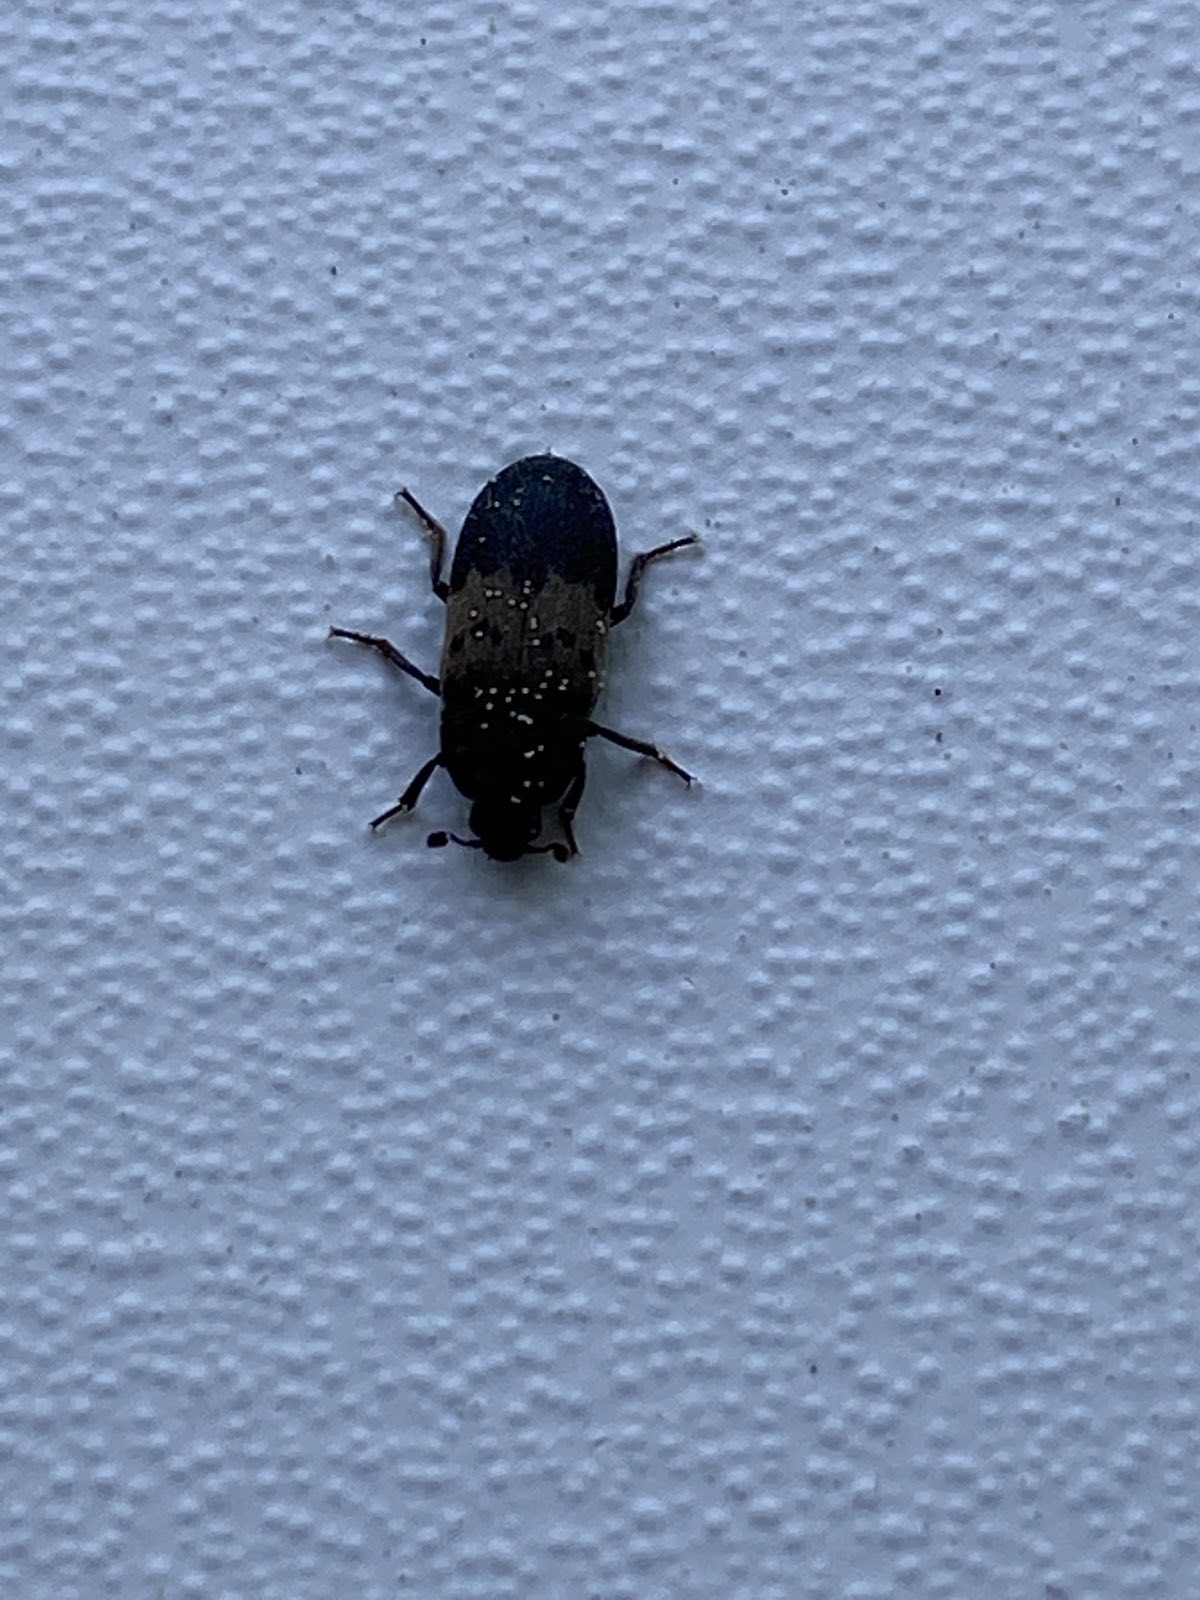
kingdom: Animalia
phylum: Arthropoda
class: Insecta
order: Coleoptera
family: Dermestidae
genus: Dermestes
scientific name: Dermestes lardarius
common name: Larder beetle
